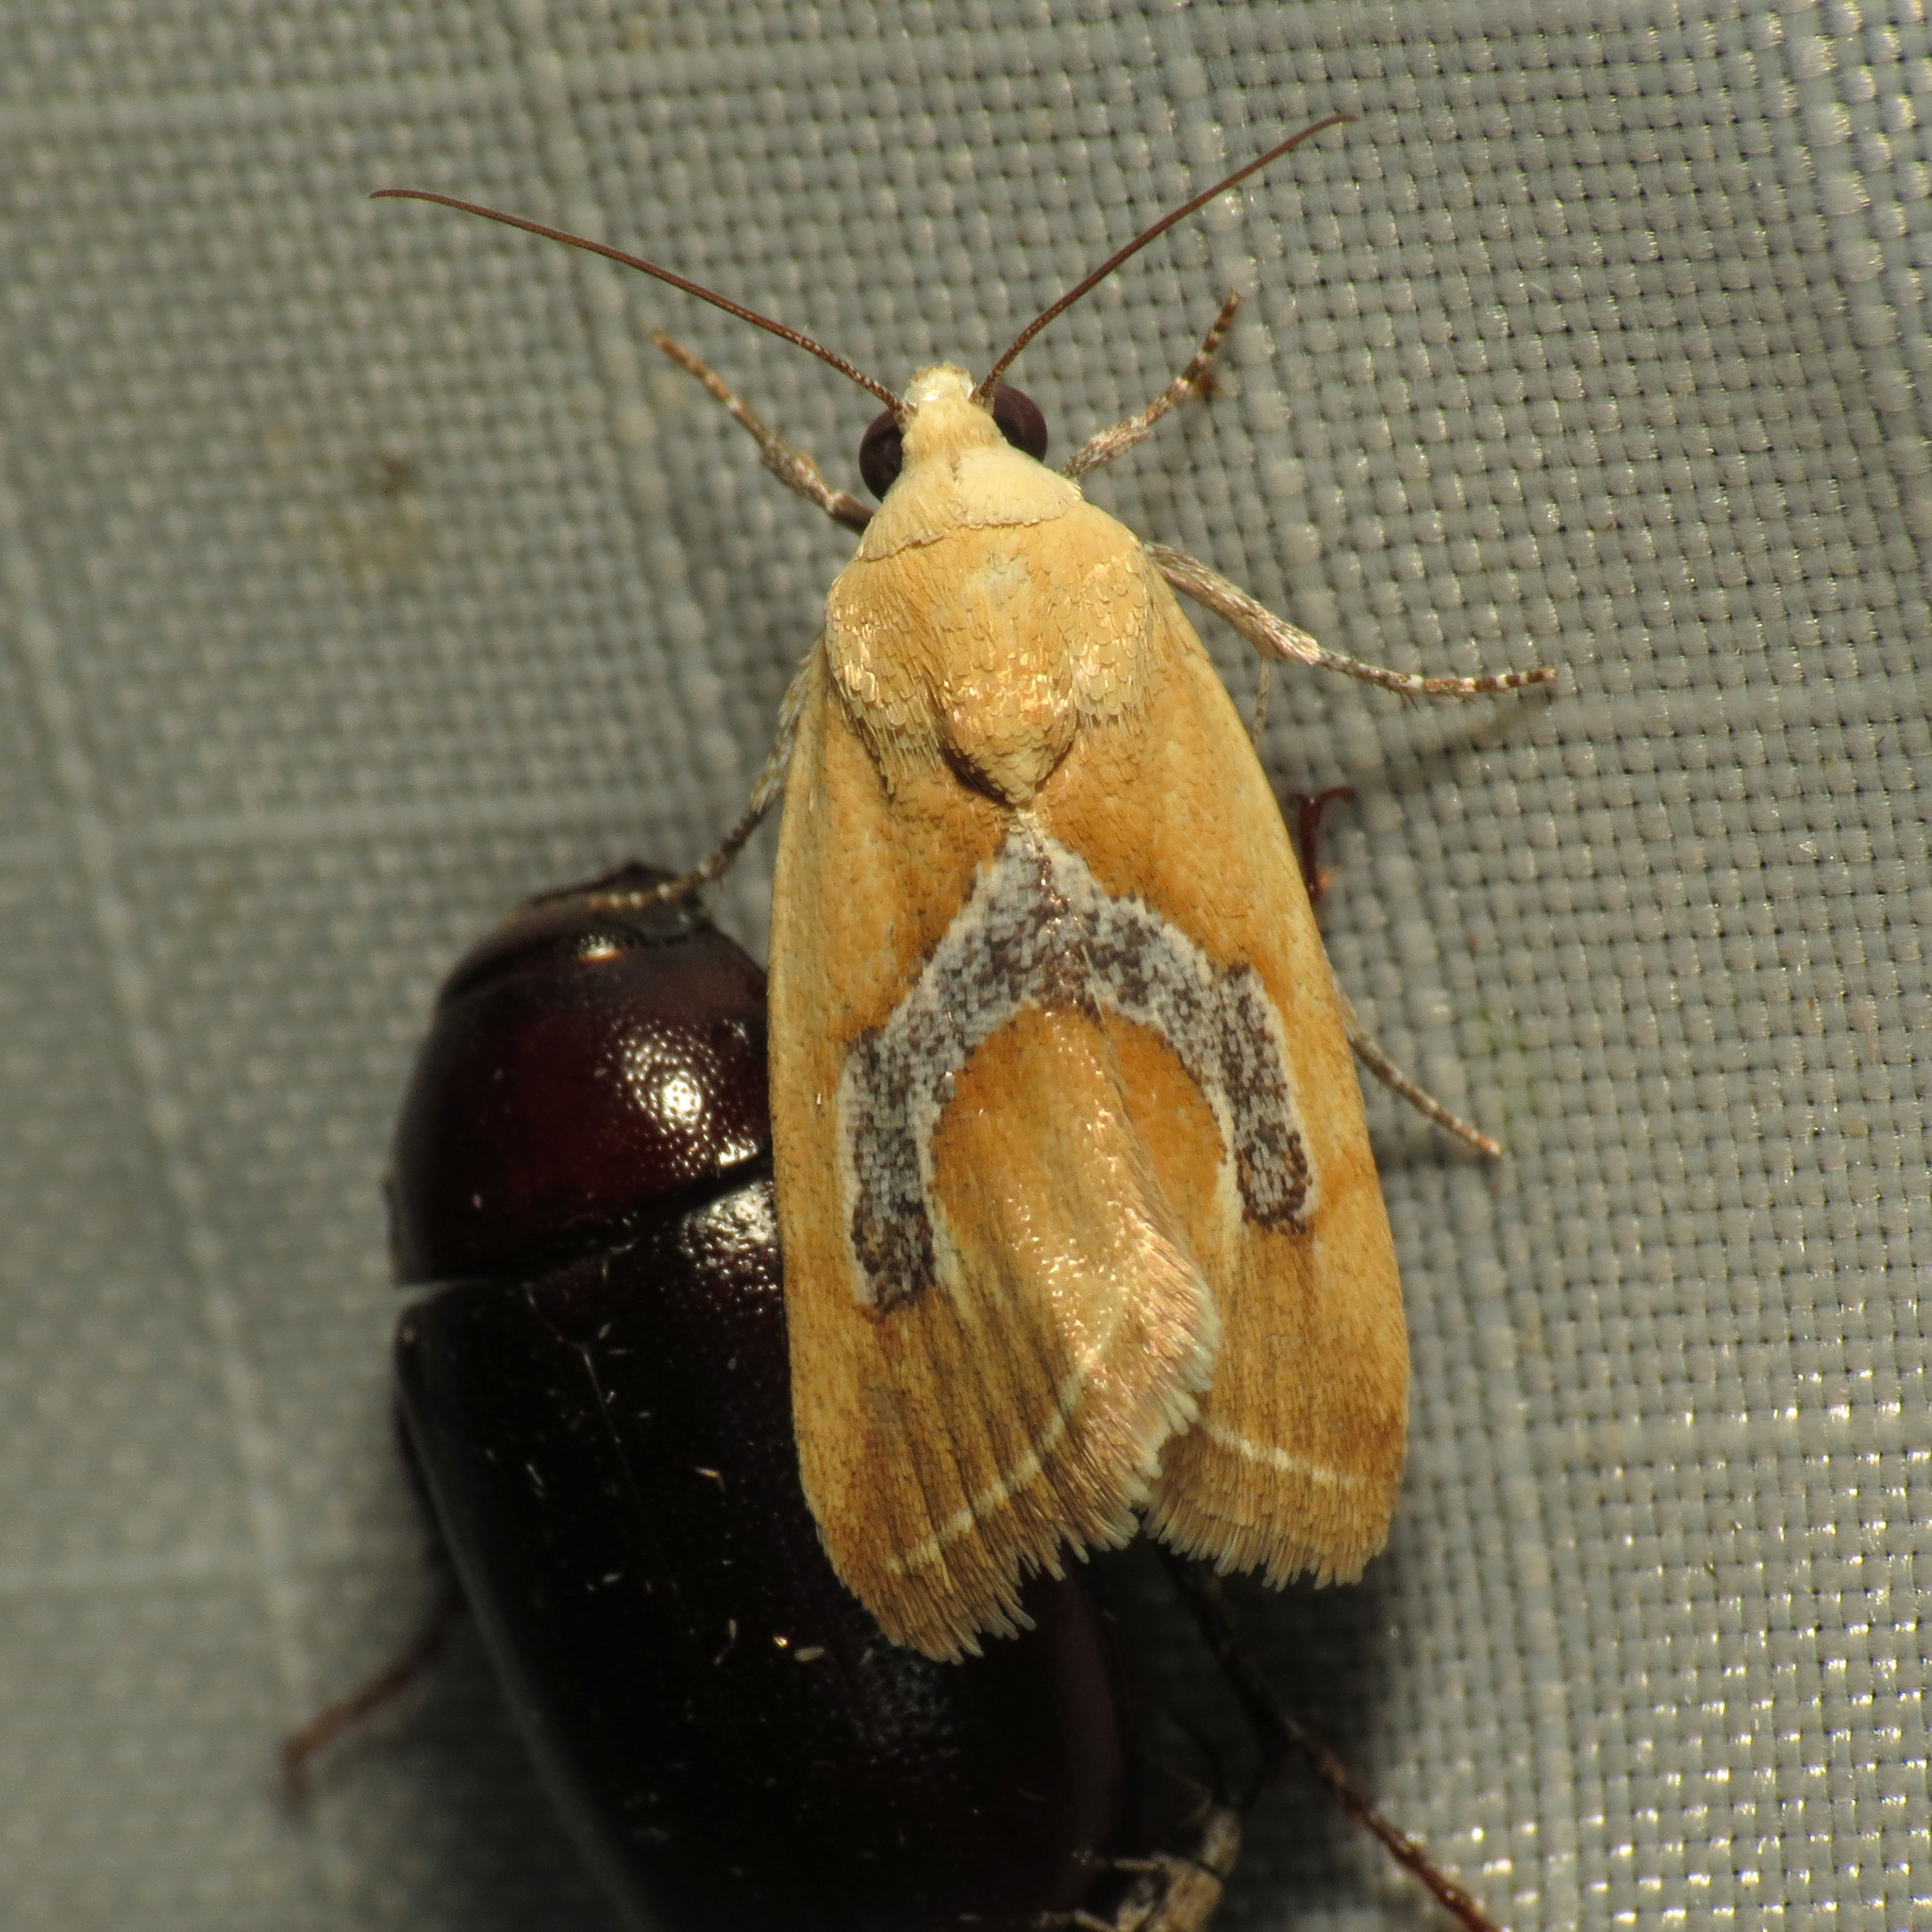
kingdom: Animalia
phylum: Arthropoda
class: Insecta
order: Lepidoptera
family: Noctuidae
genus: Ponometia
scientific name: Ponometia venustula
